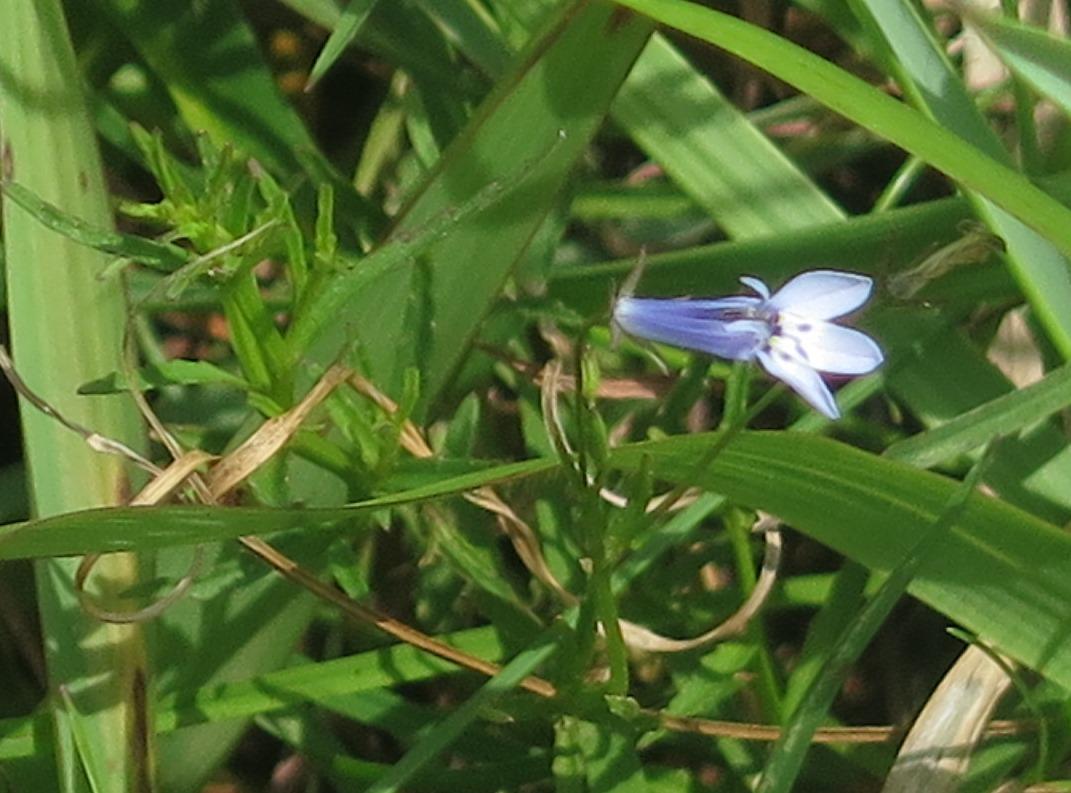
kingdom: Plantae
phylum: Tracheophyta
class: Magnoliopsida
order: Asterales
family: Campanulaceae
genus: Lobelia
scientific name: Lobelia flaccida
